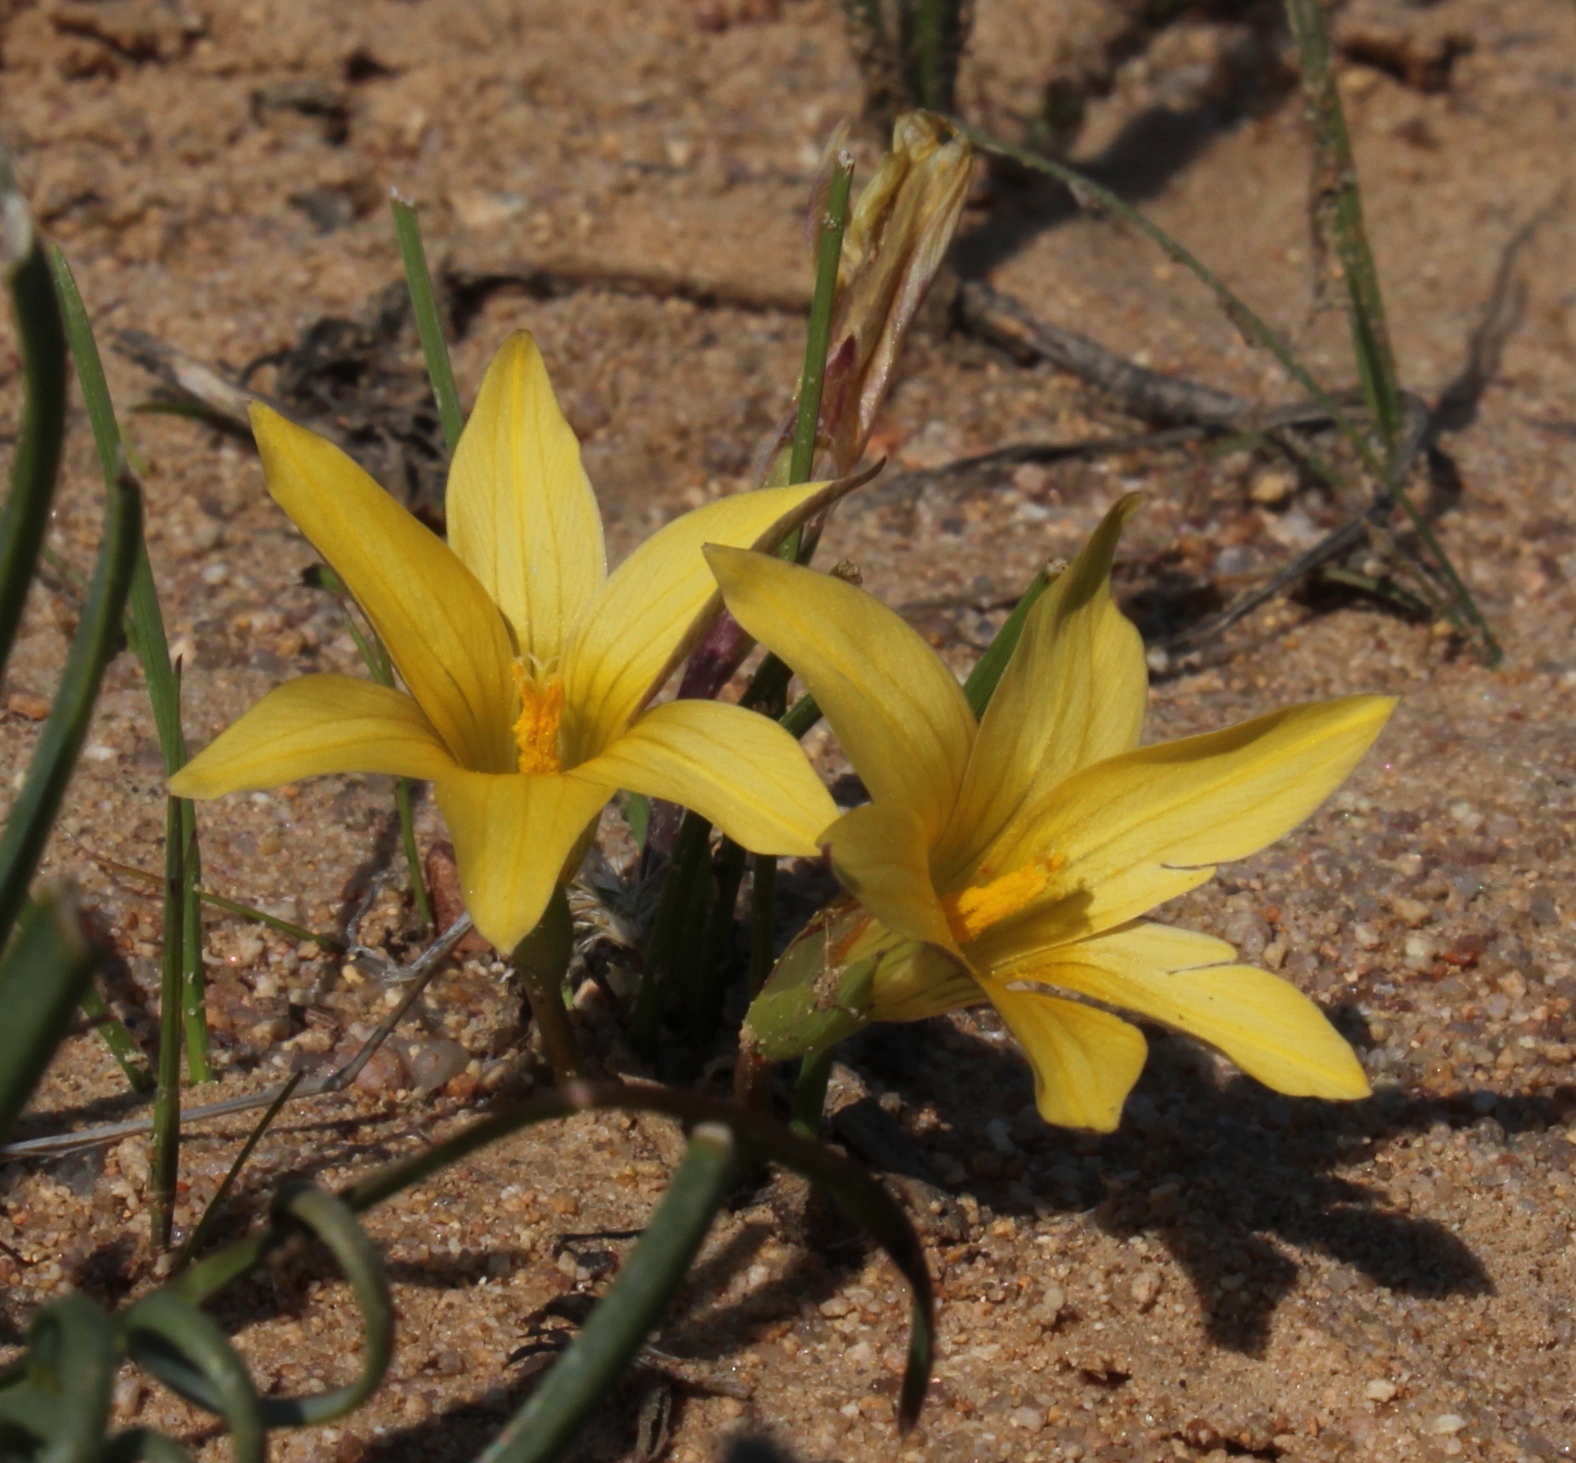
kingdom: Plantae
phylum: Tracheophyta
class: Liliopsida
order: Asparagales
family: Iridaceae
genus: Romulea
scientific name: Romulea citrina
